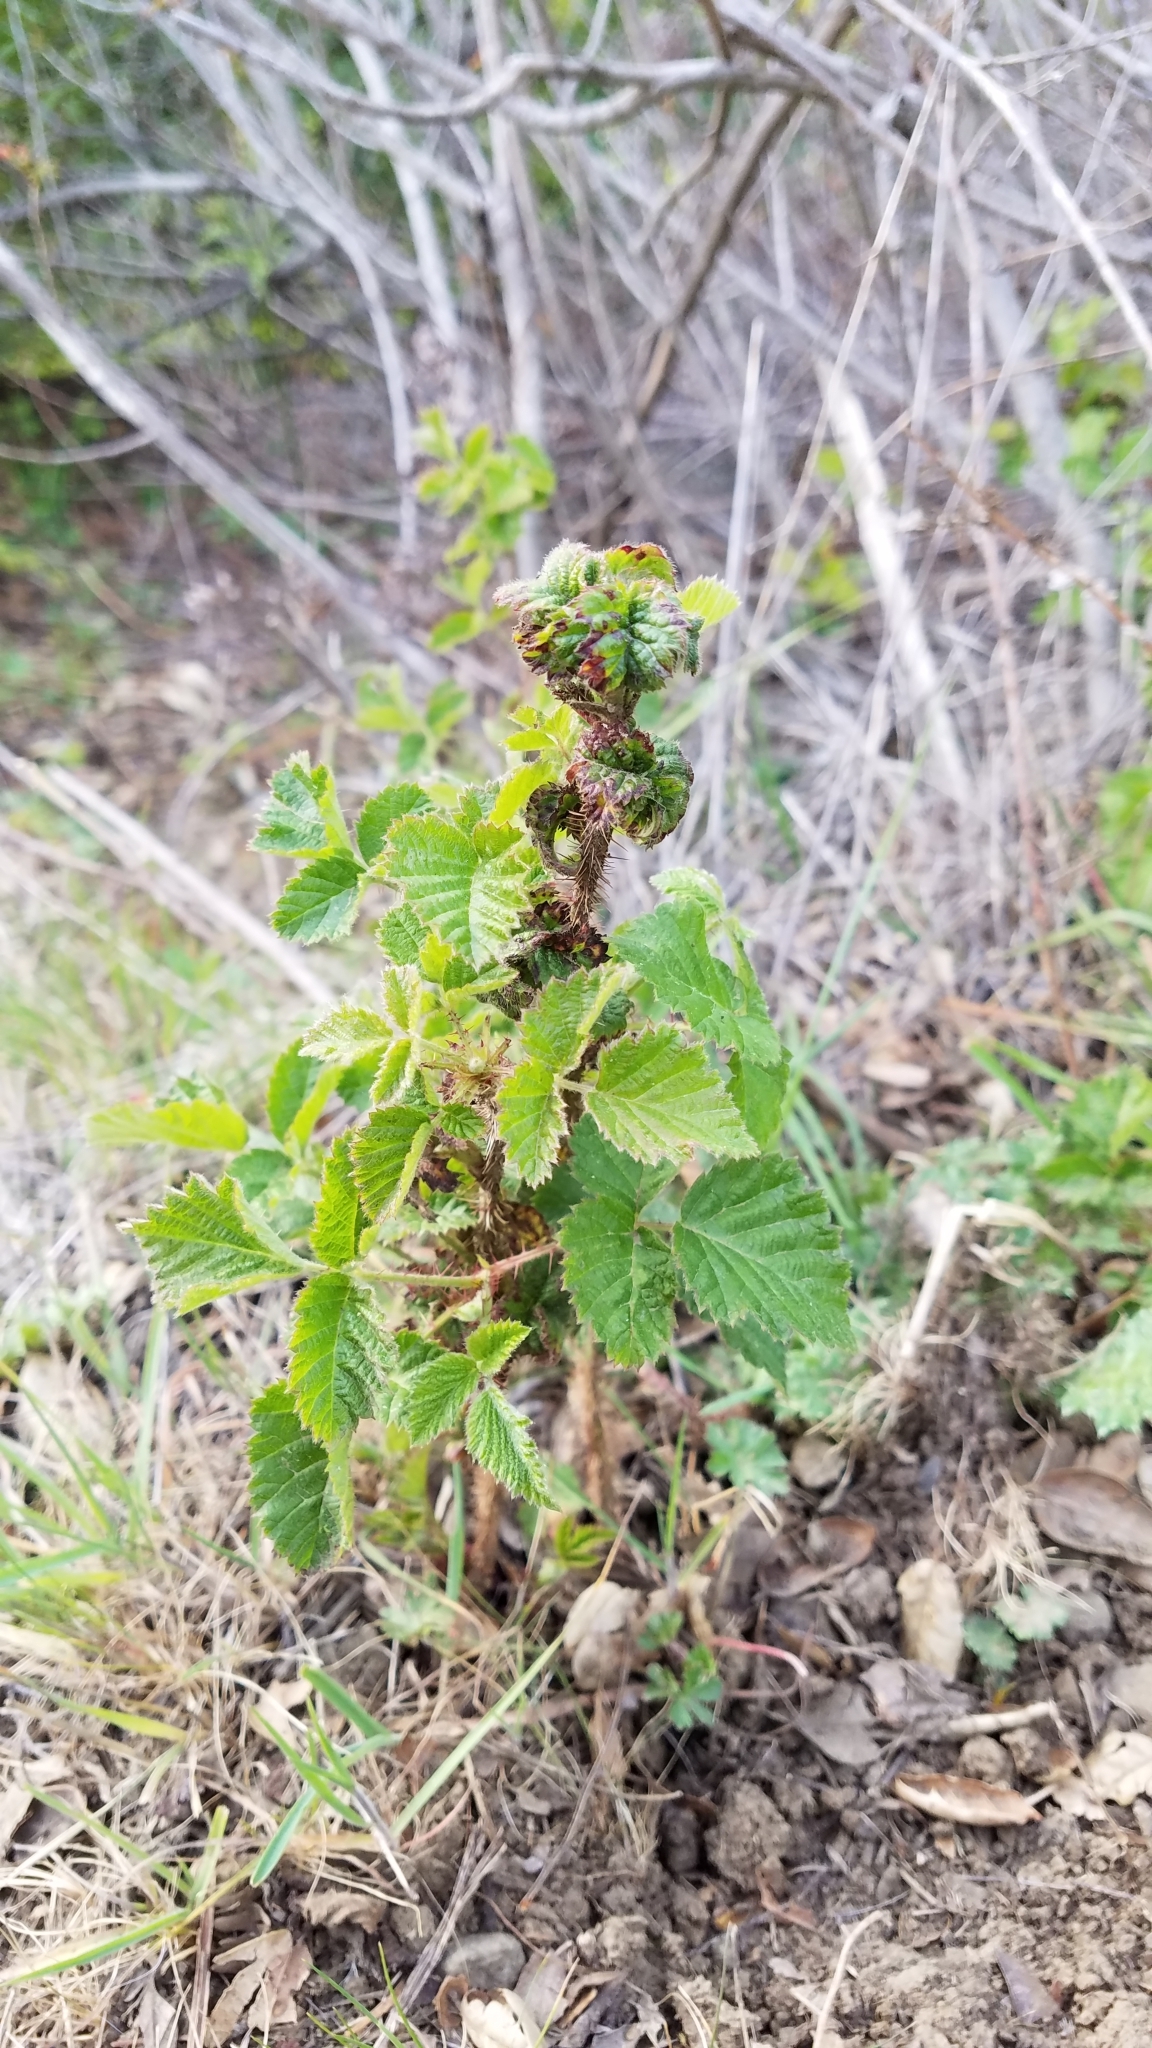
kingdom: Plantae
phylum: Tracheophyta
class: Magnoliopsida
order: Rosales
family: Rosaceae
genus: Rubus
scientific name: Rubus ursinus
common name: Pacific blackberry
